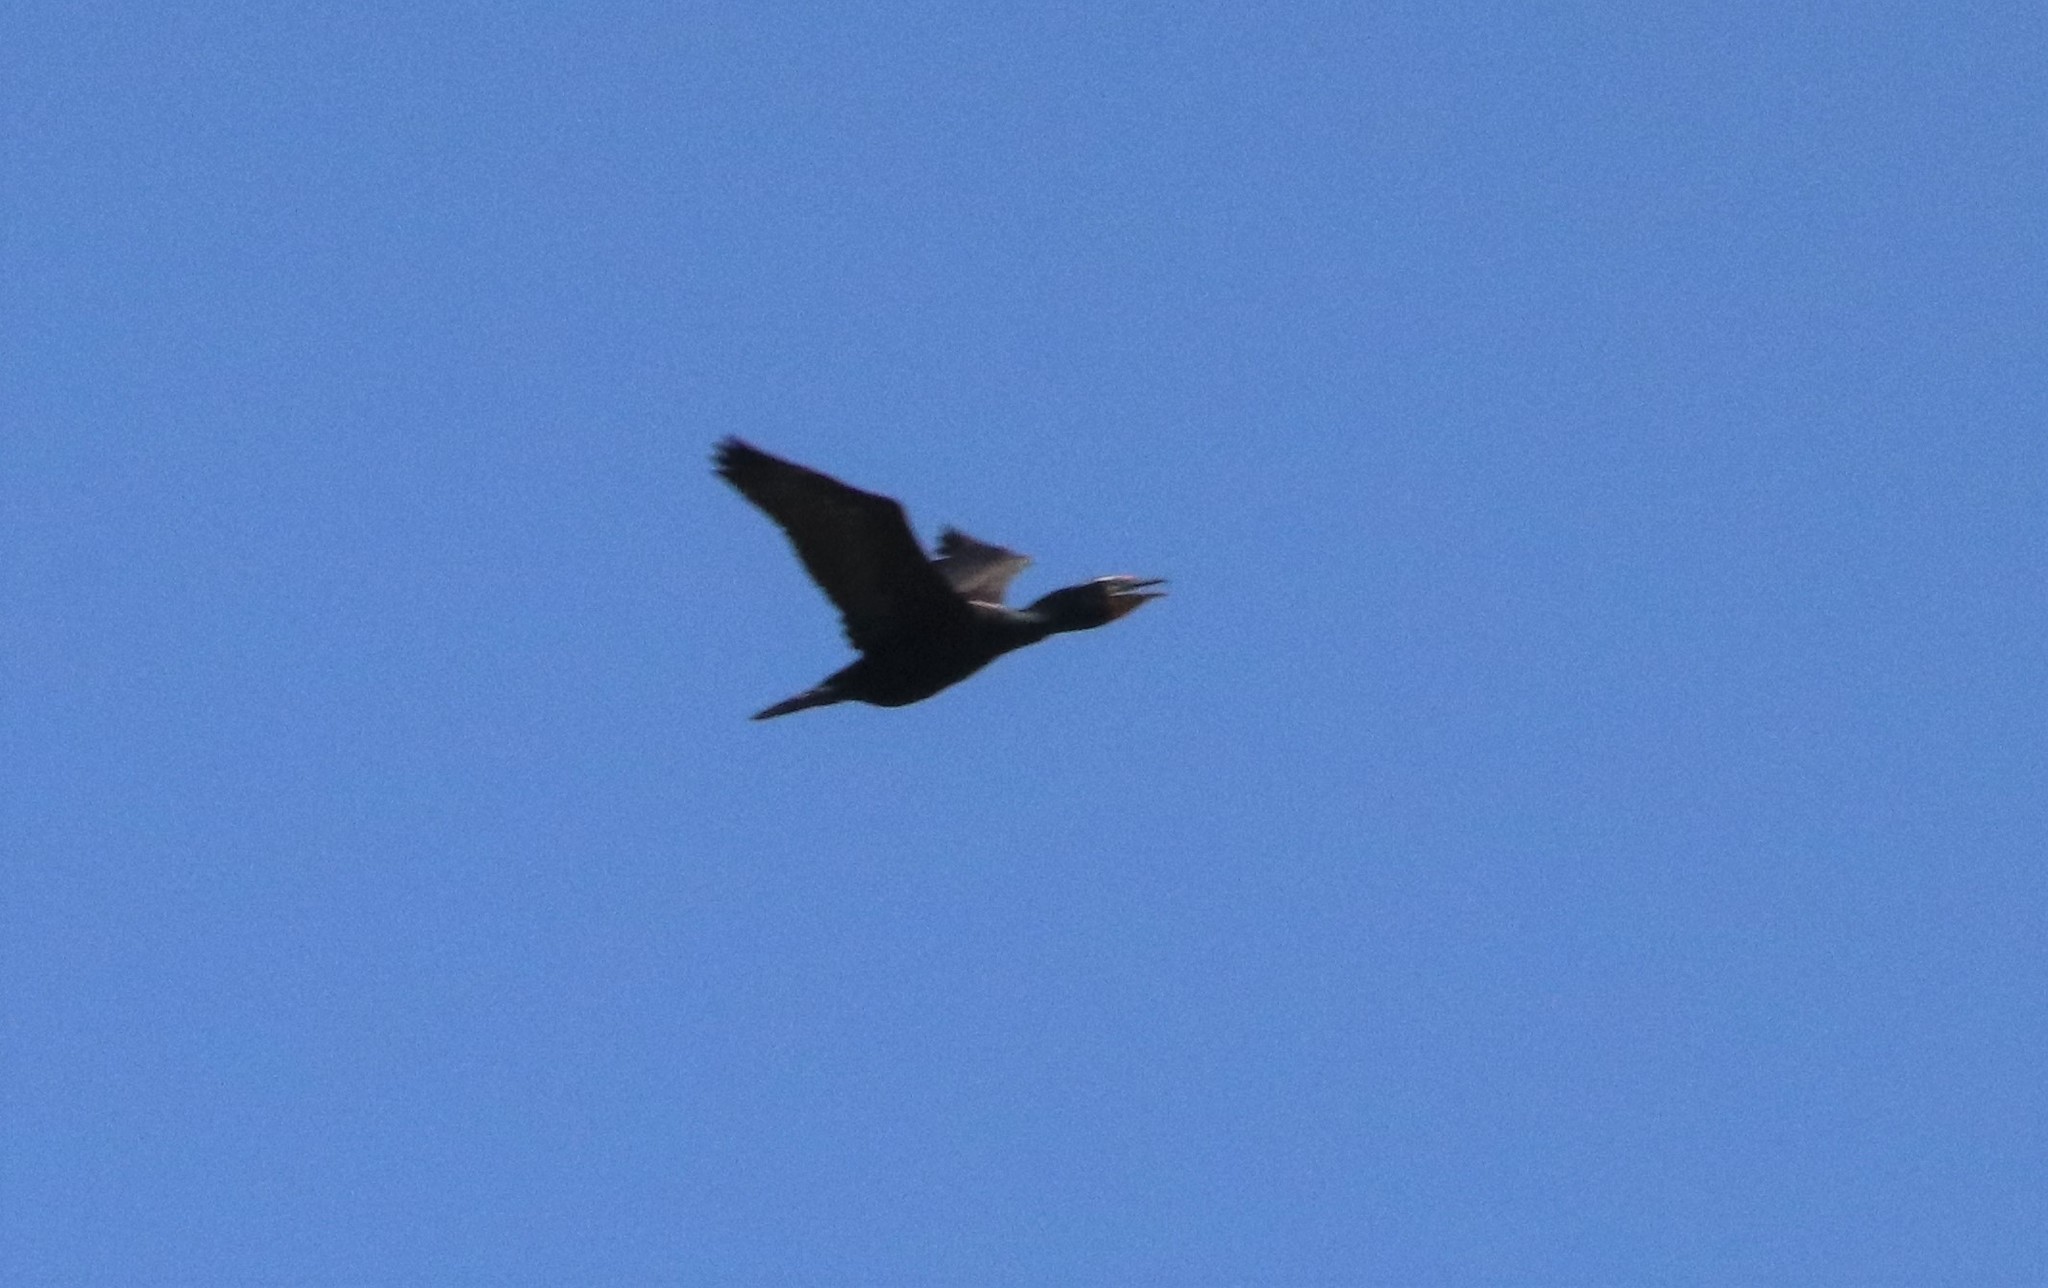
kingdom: Animalia
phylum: Chordata
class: Aves
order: Suliformes
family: Phalacrocoracidae
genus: Phalacrocorax
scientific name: Phalacrocorax auritus
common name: Double-crested cormorant
